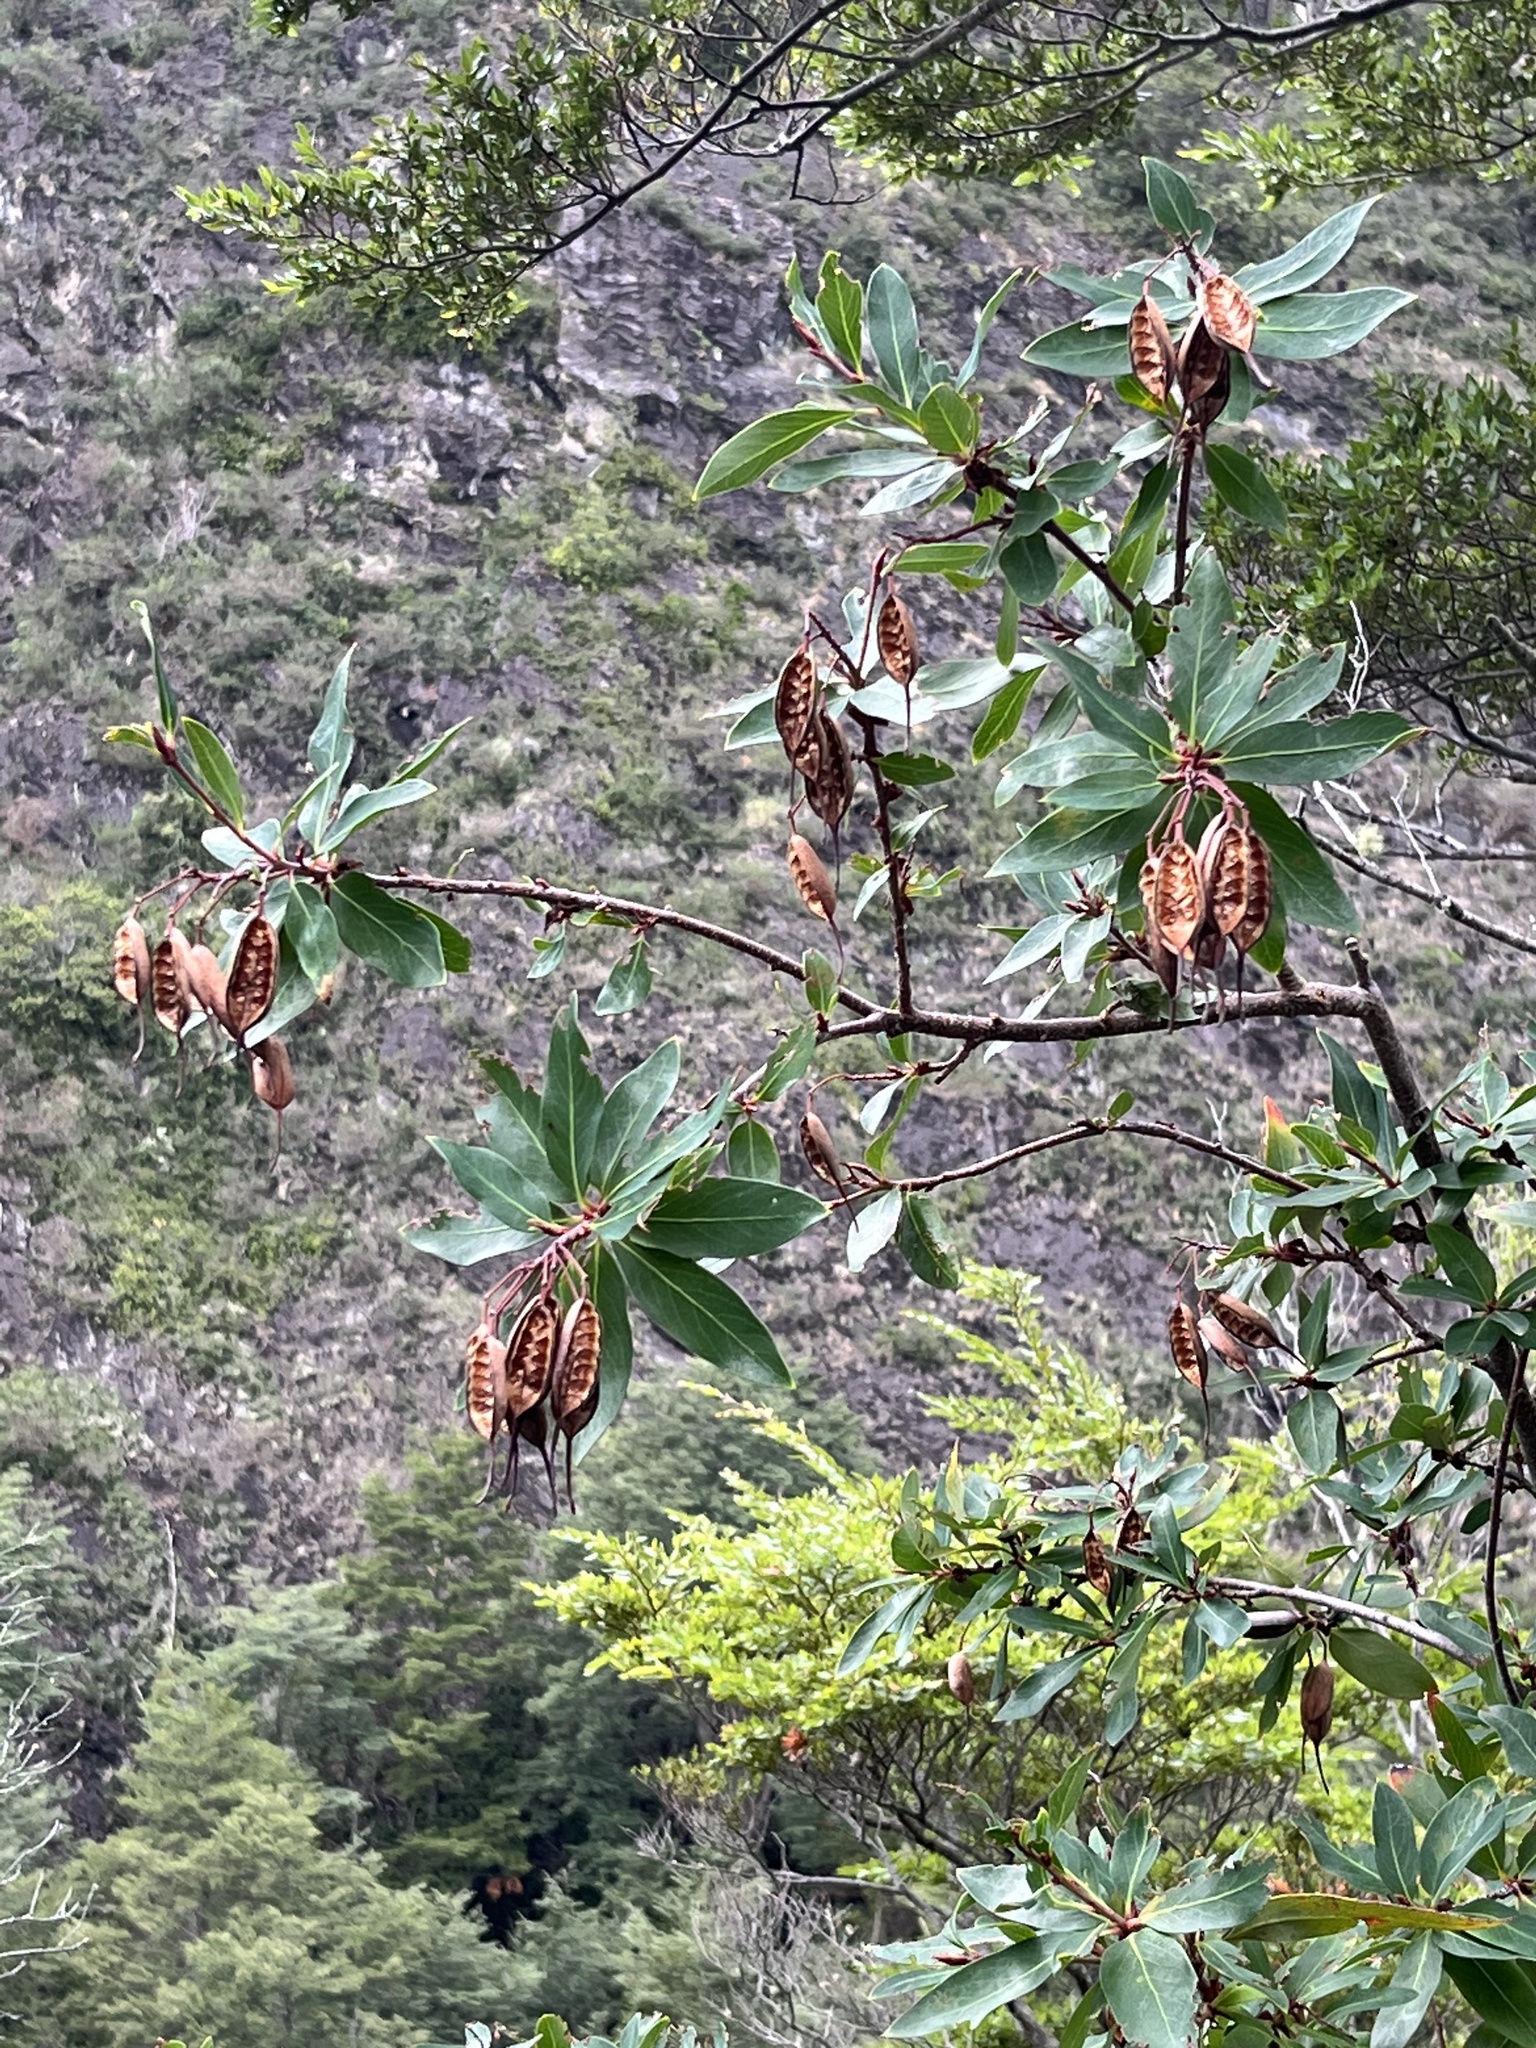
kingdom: Plantae
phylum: Tracheophyta
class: Magnoliopsida
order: Proteales
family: Proteaceae
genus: Embothrium
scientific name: Embothrium coccineum
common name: Chilean firebush
